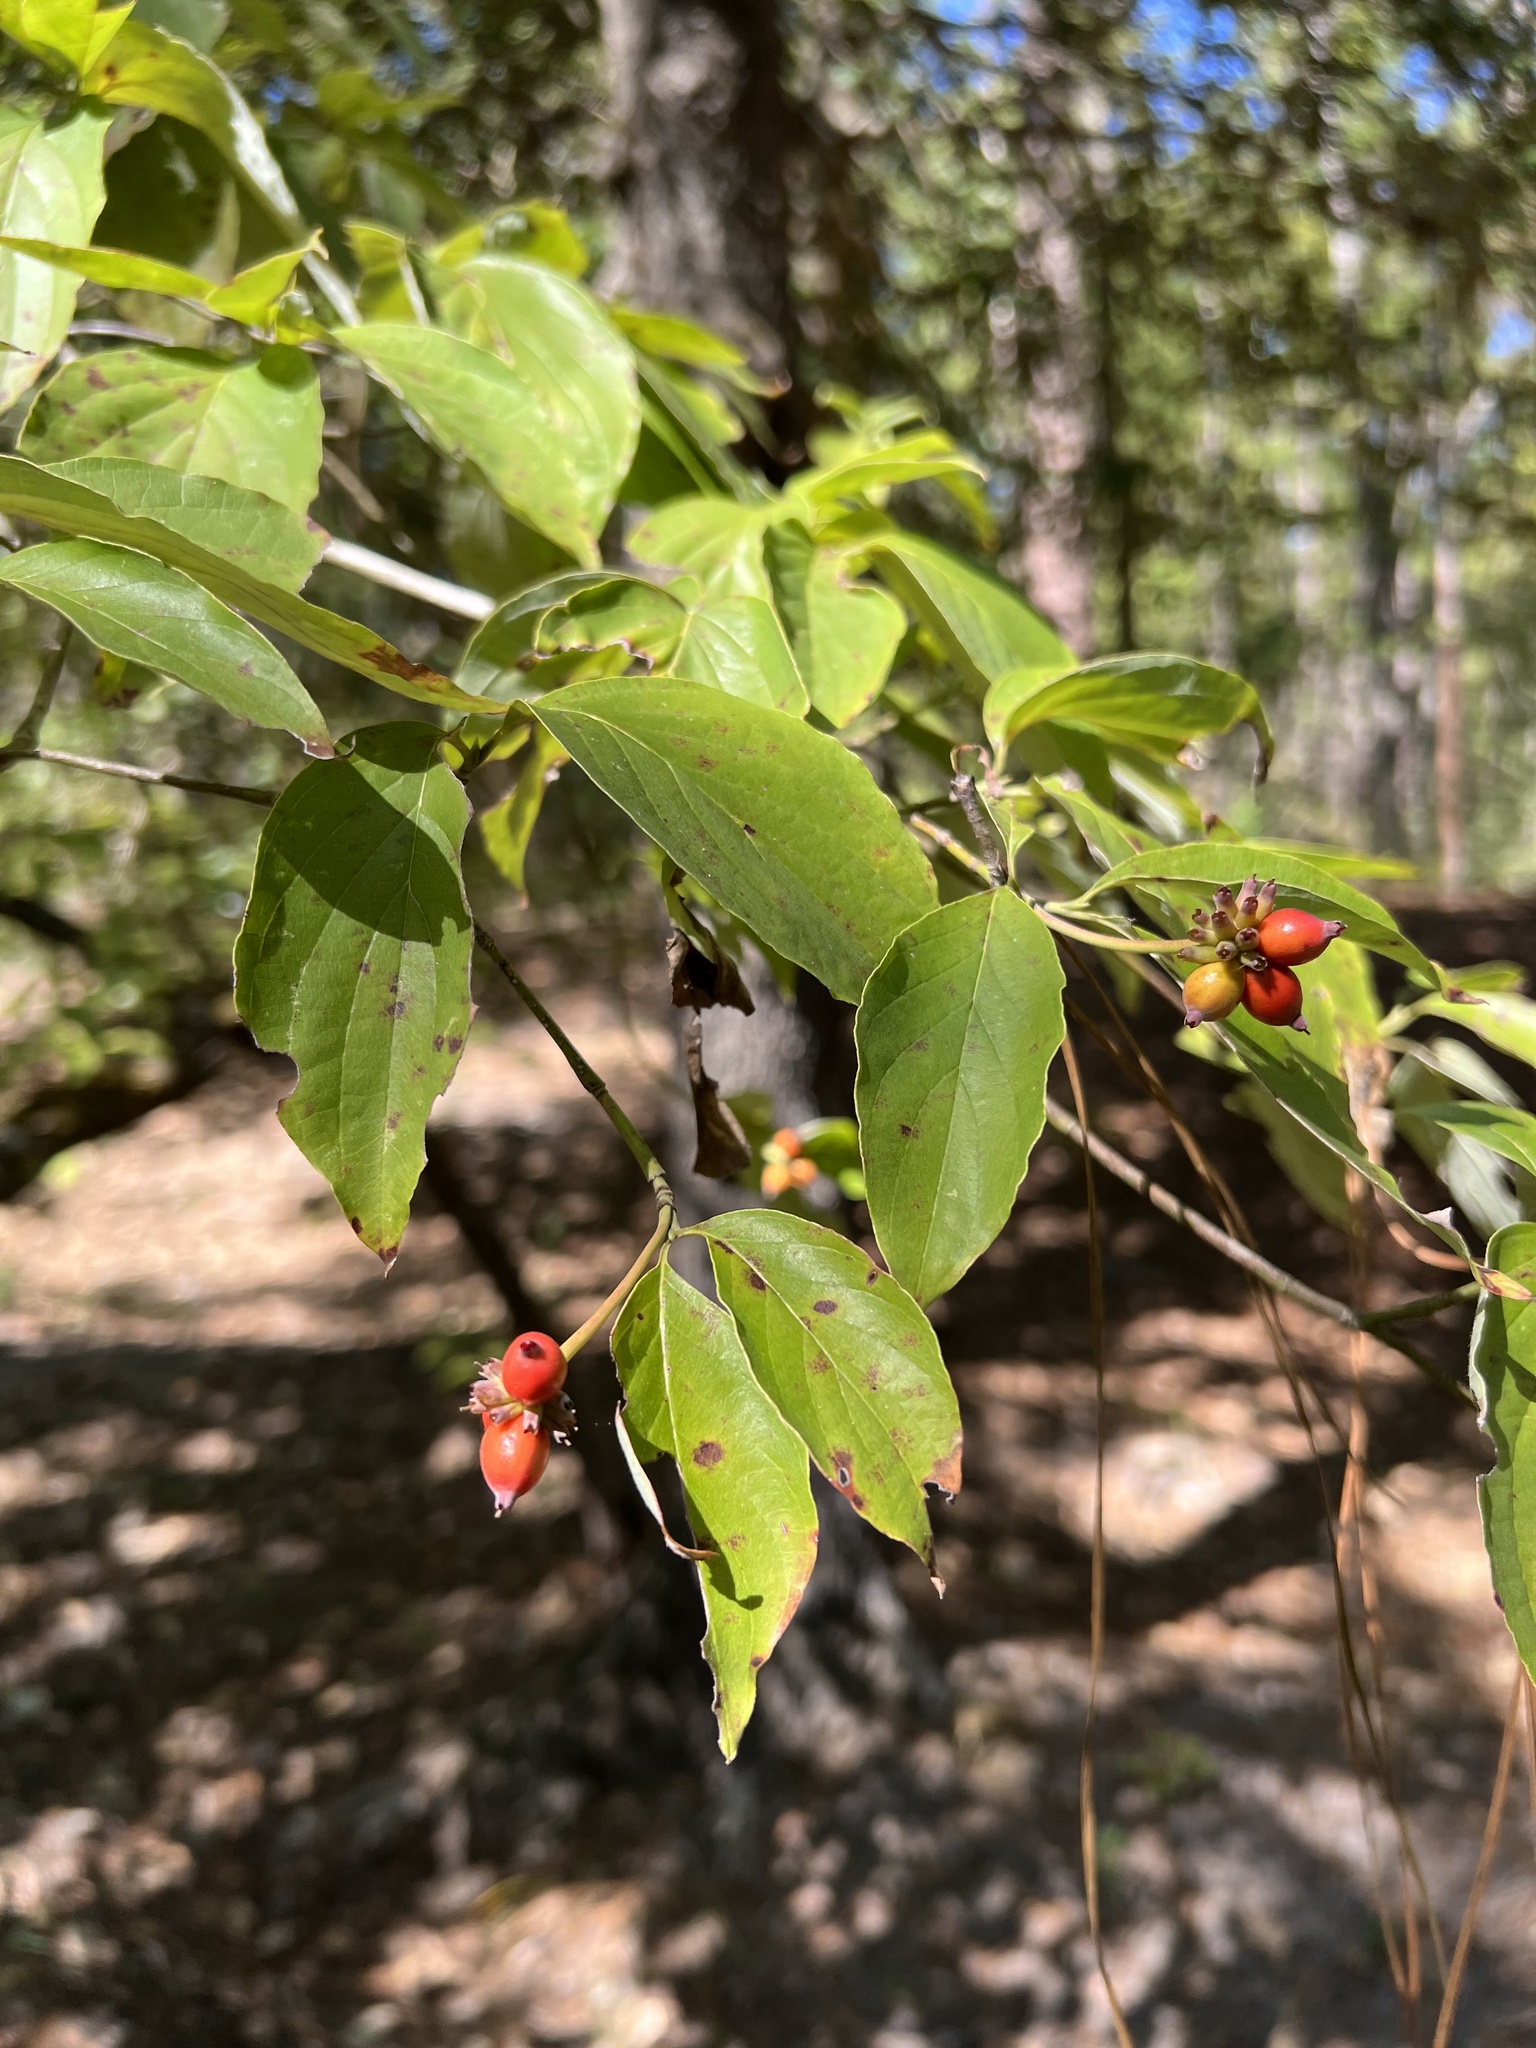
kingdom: Plantae
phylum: Tracheophyta
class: Magnoliopsida
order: Cornales
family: Cornaceae
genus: Cornus
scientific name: Cornus florida
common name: Flowering dogwood
